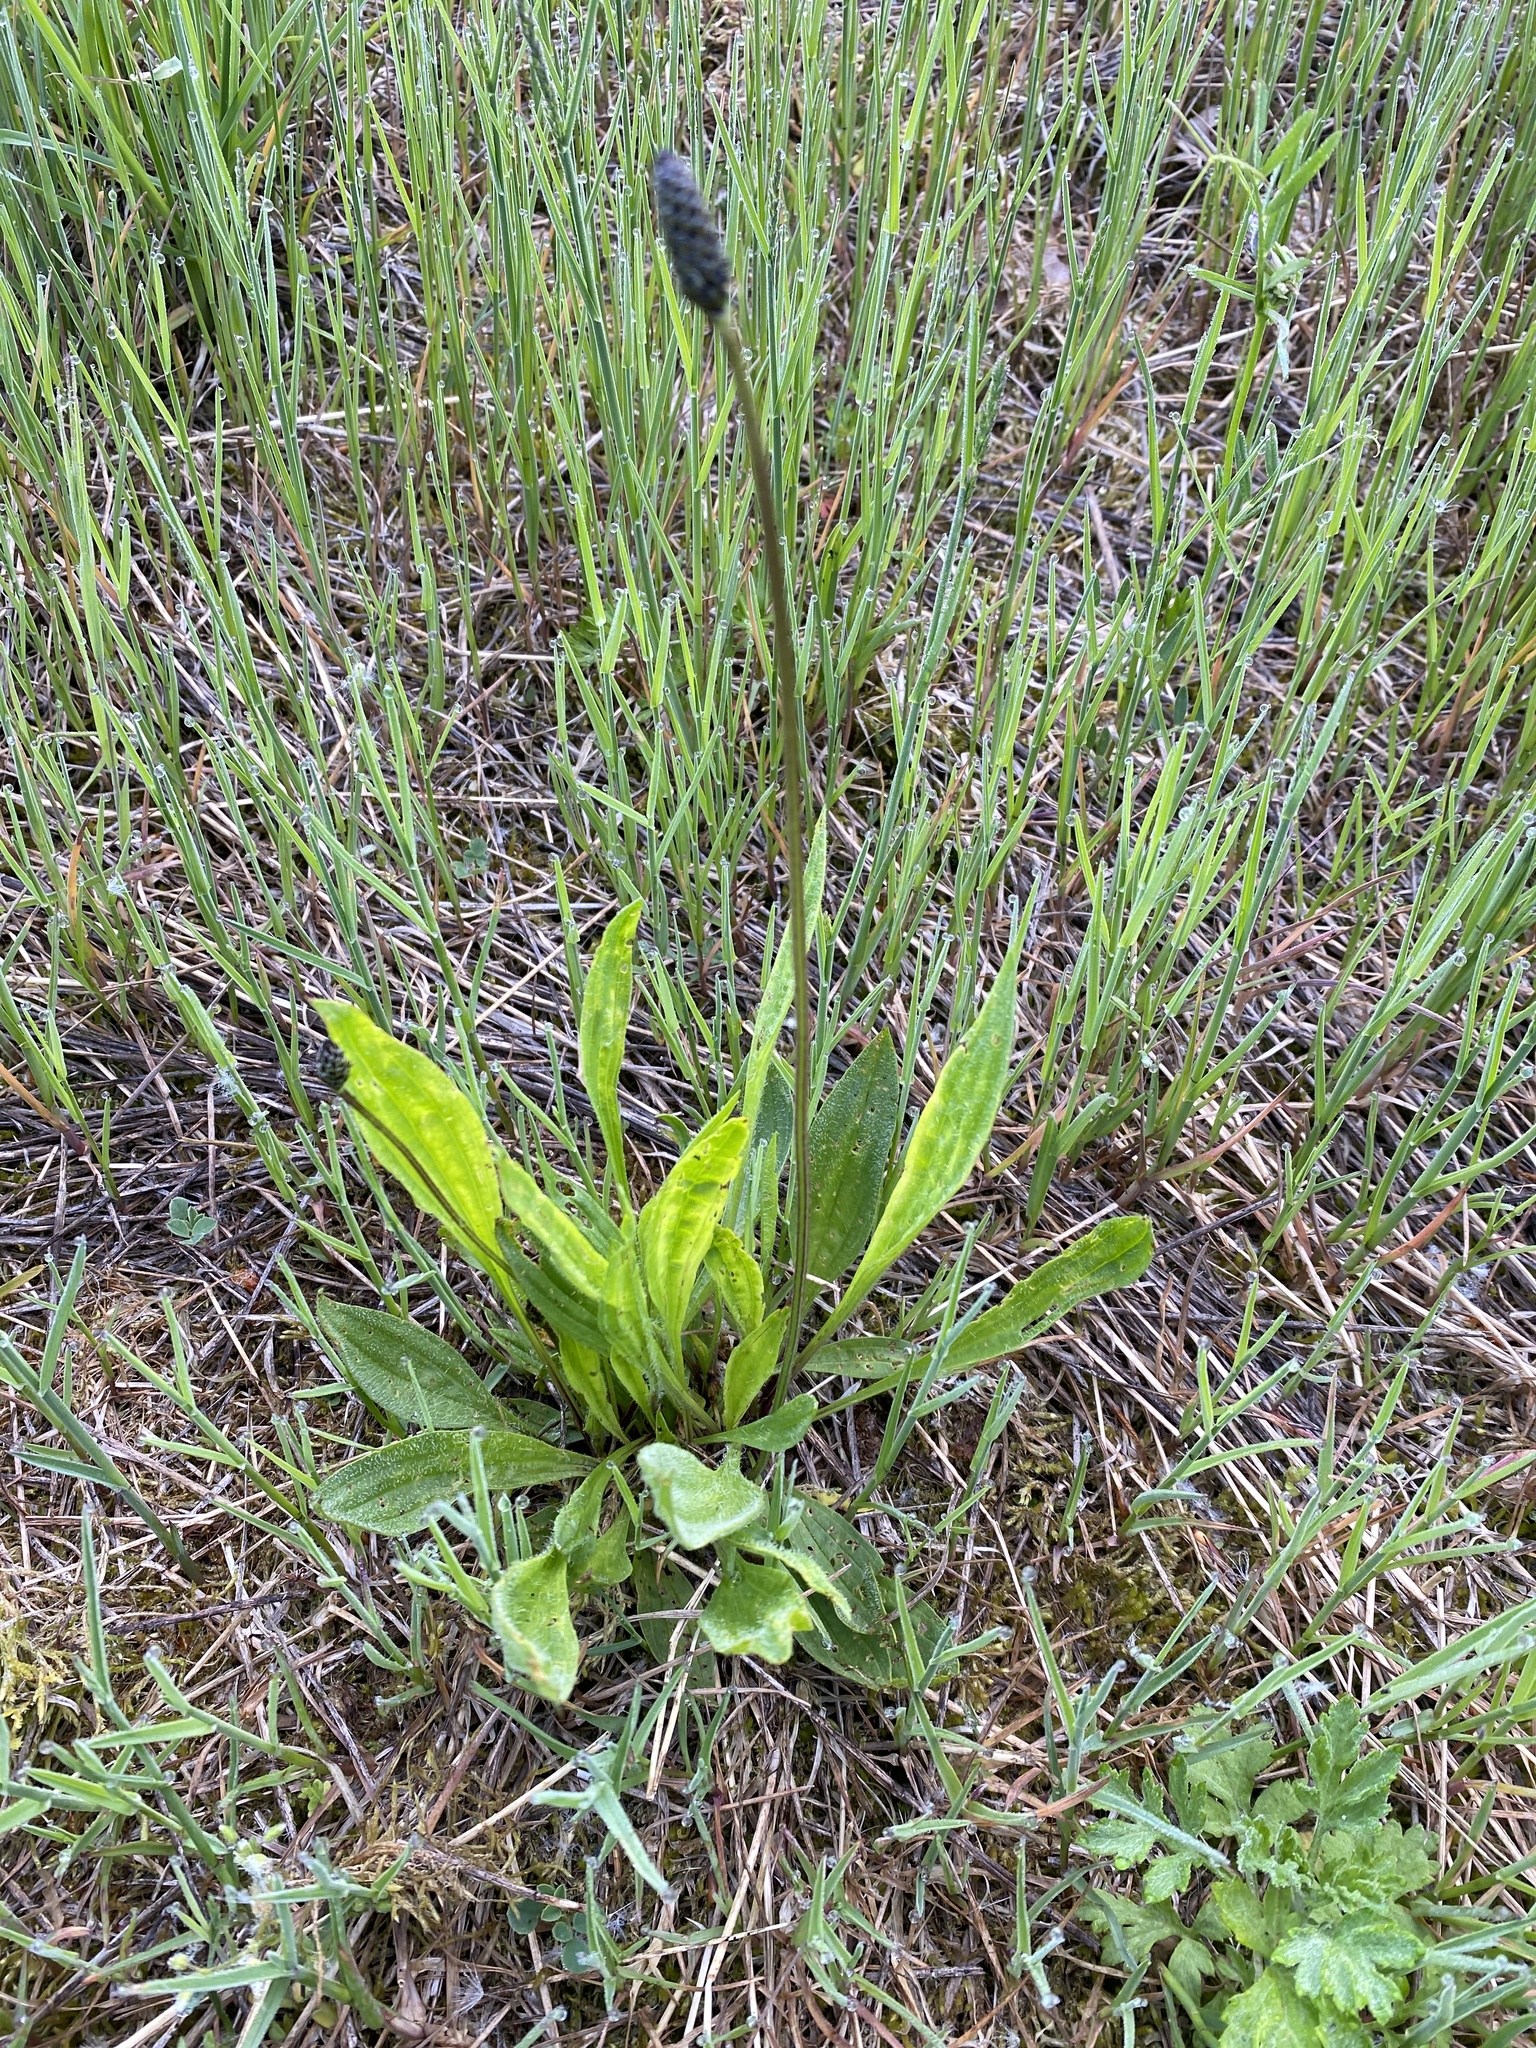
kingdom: Plantae
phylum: Tracheophyta
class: Magnoliopsida
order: Lamiales
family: Plantaginaceae
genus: Plantago
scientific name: Plantago lanceolata
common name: Ribwort plantain
